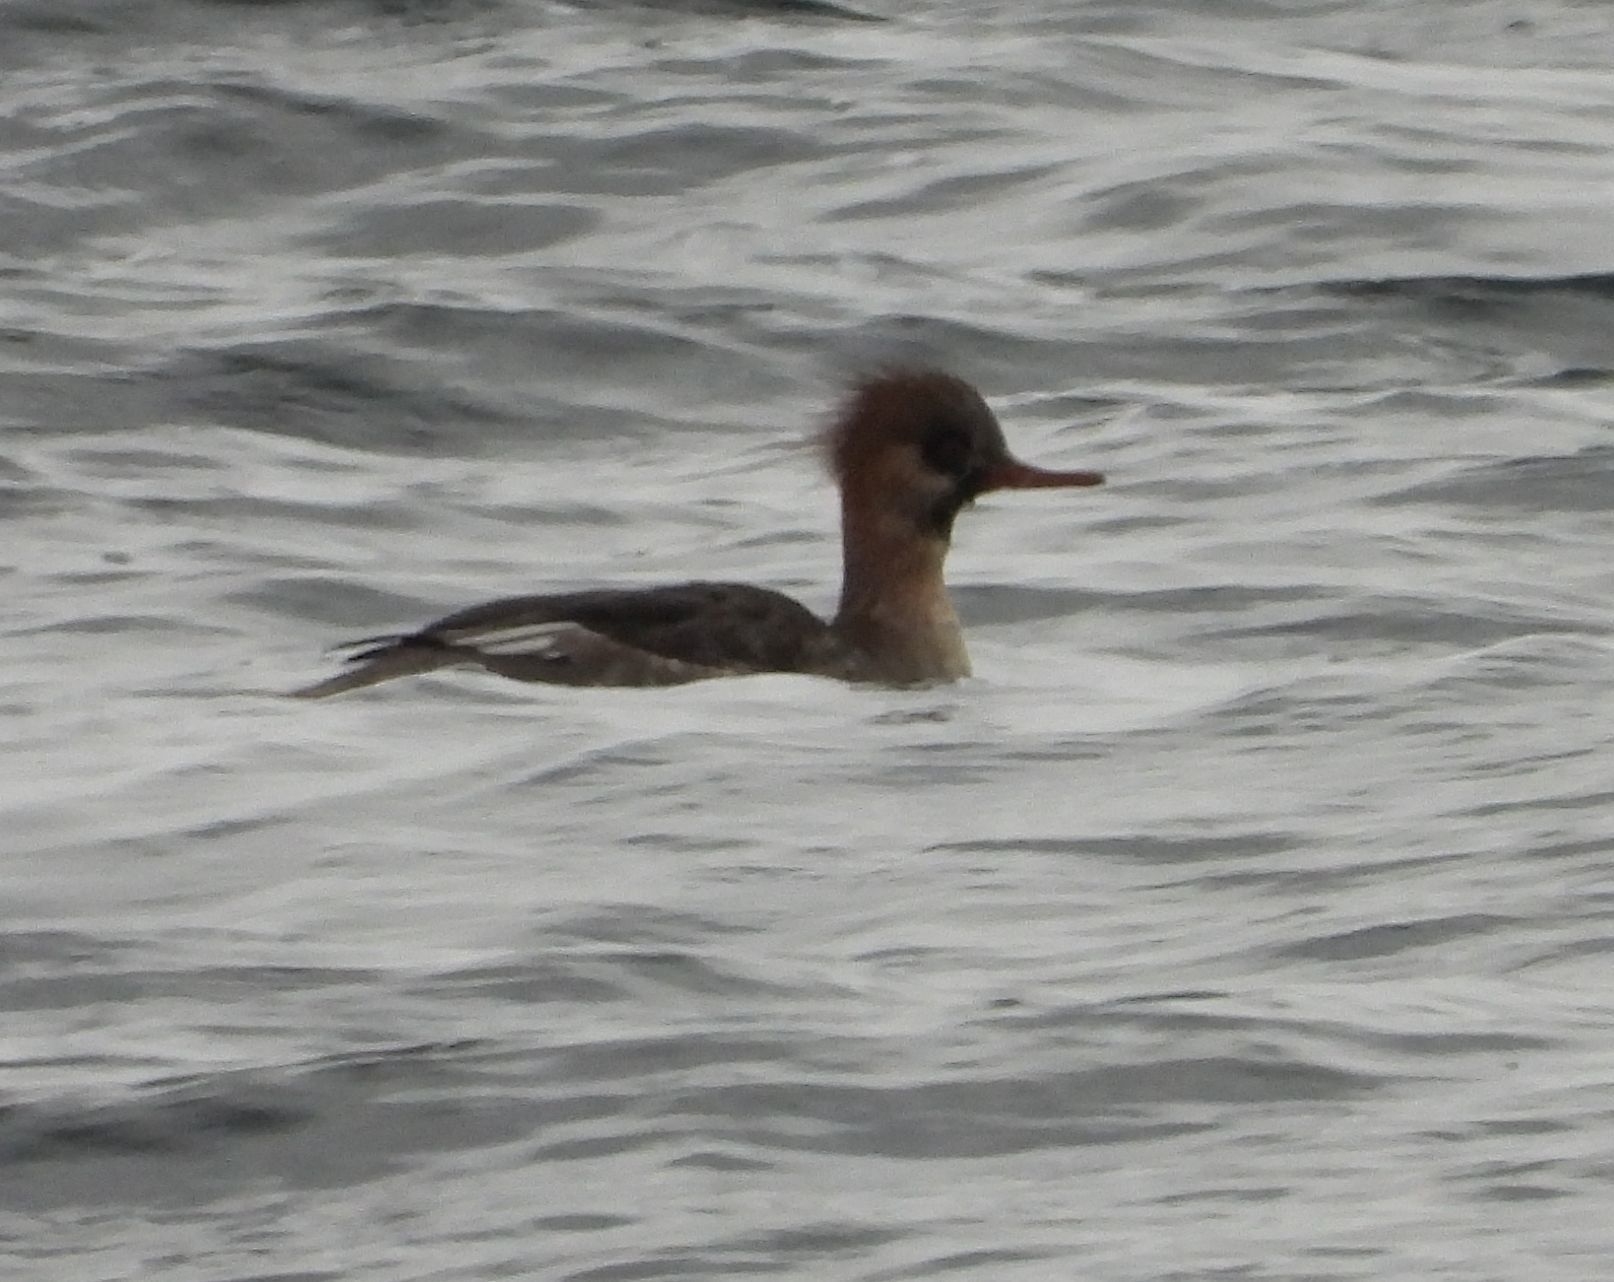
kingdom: Animalia
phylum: Chordata
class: Aves
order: Anseriformes
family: Anatidae
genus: Mergus
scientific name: Mergus serrator
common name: Red-breasted merganser
